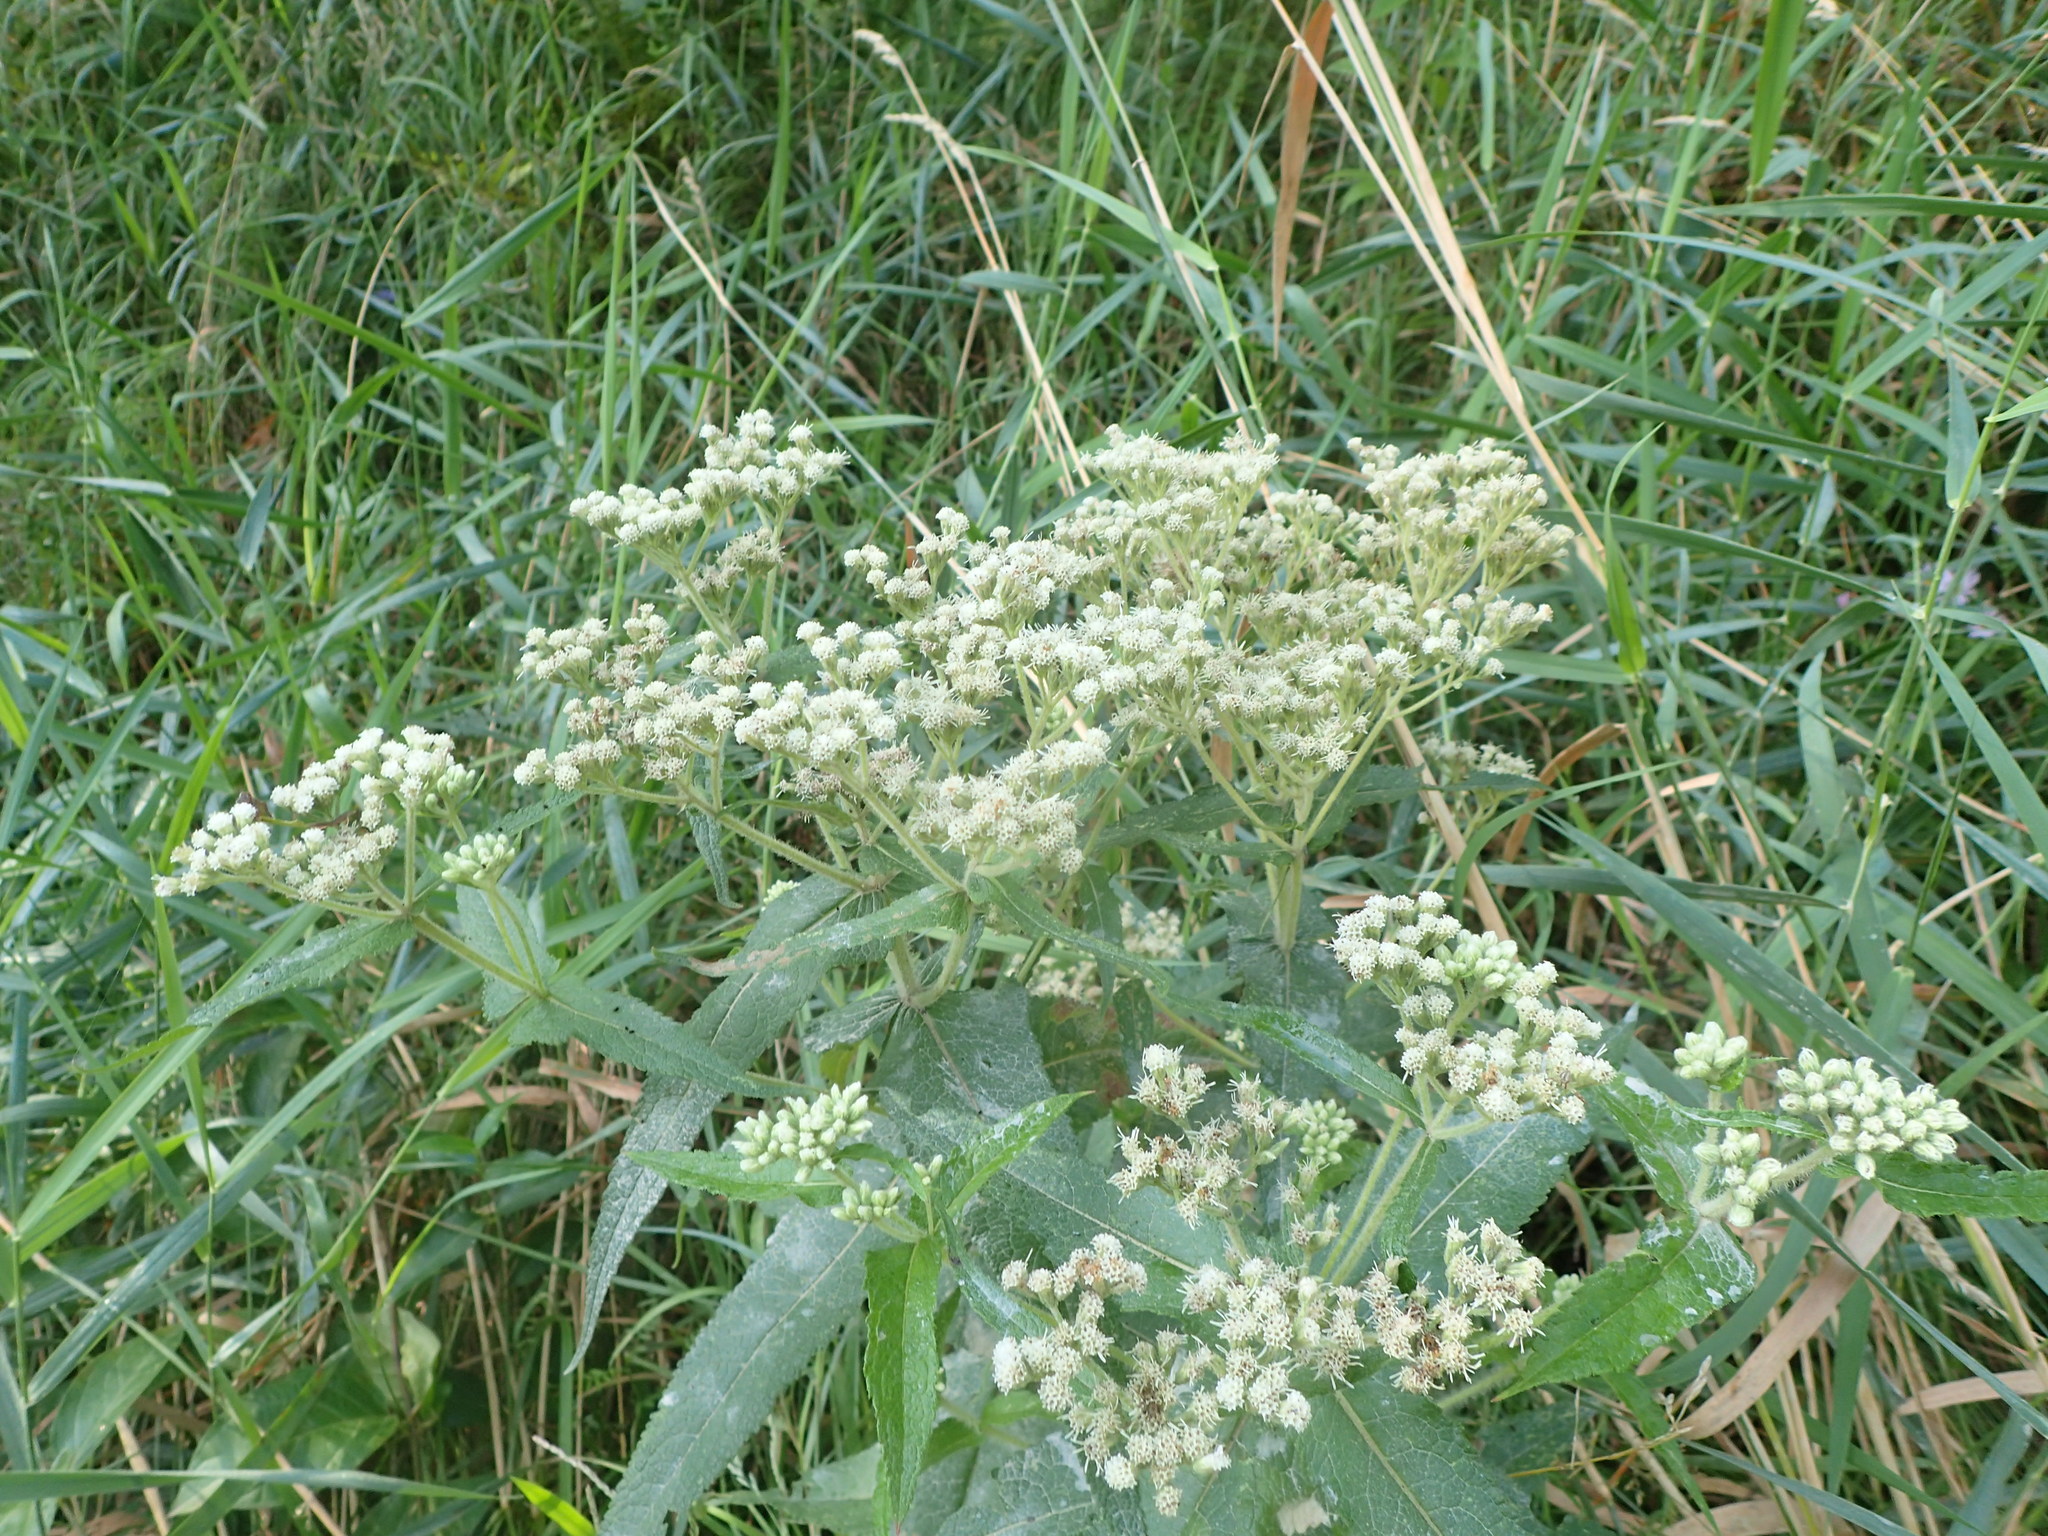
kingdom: Plantae
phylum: Tracheophyta
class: Magnoliopsida
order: Asterales
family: Asteraceae
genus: Eupatorium
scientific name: Eupatorium perfoliatum
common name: Boneset
